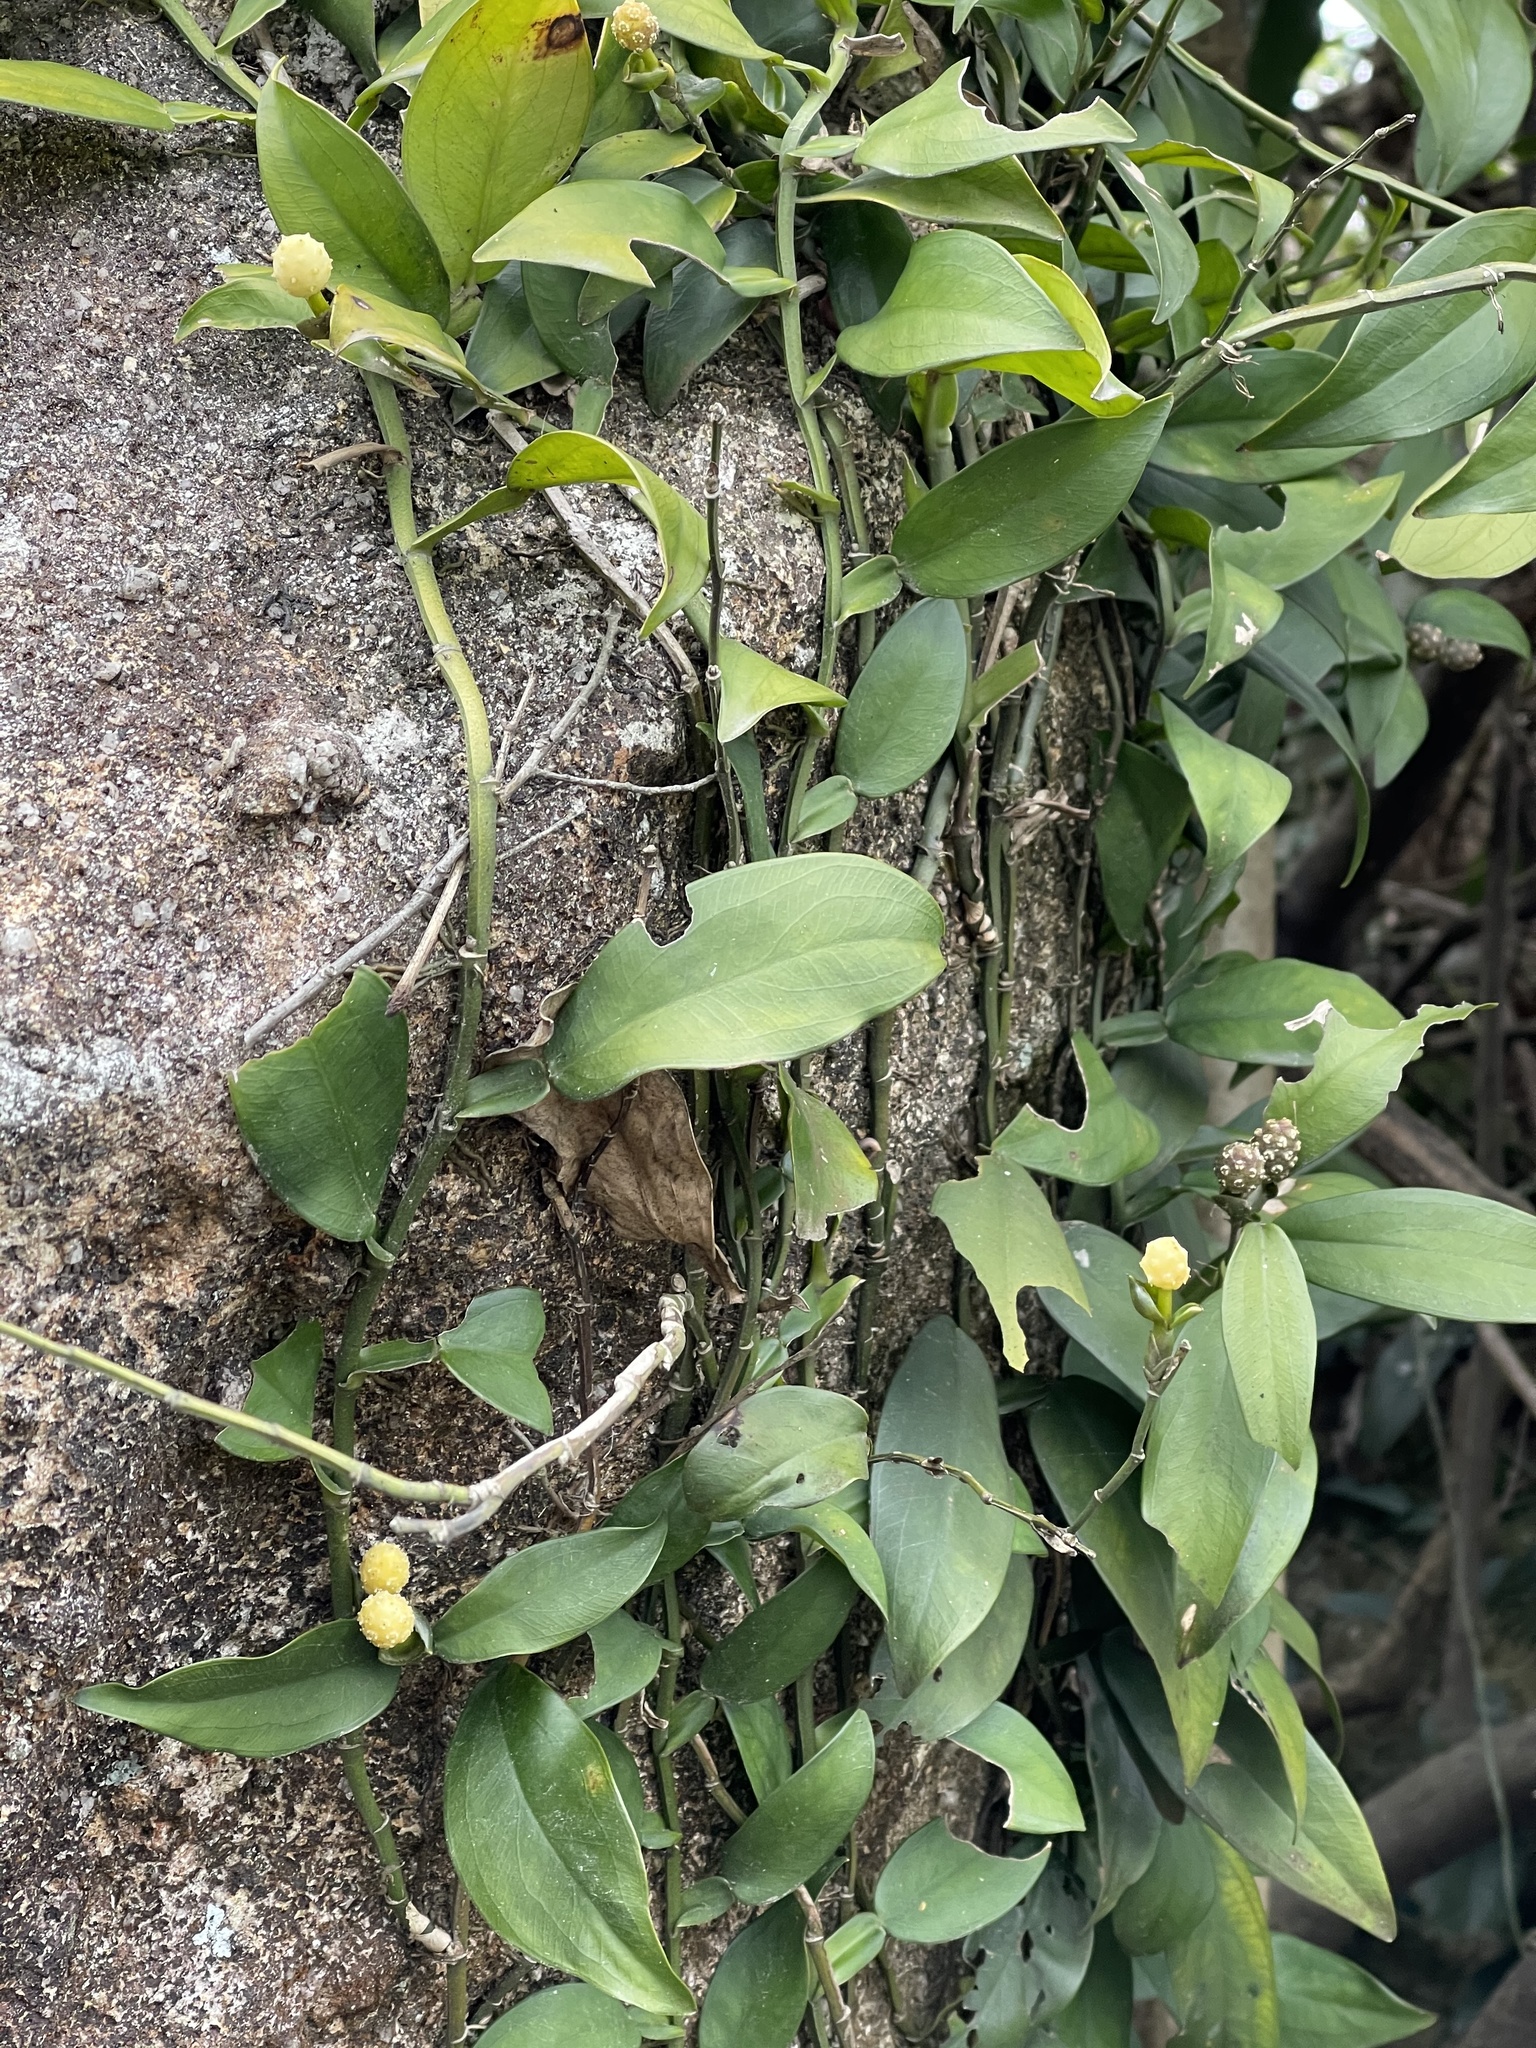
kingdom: Plantae
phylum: Tracheophyta
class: Liliopsida
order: Alismatales
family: Araceae
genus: Pothos
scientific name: Pothos chinensis
